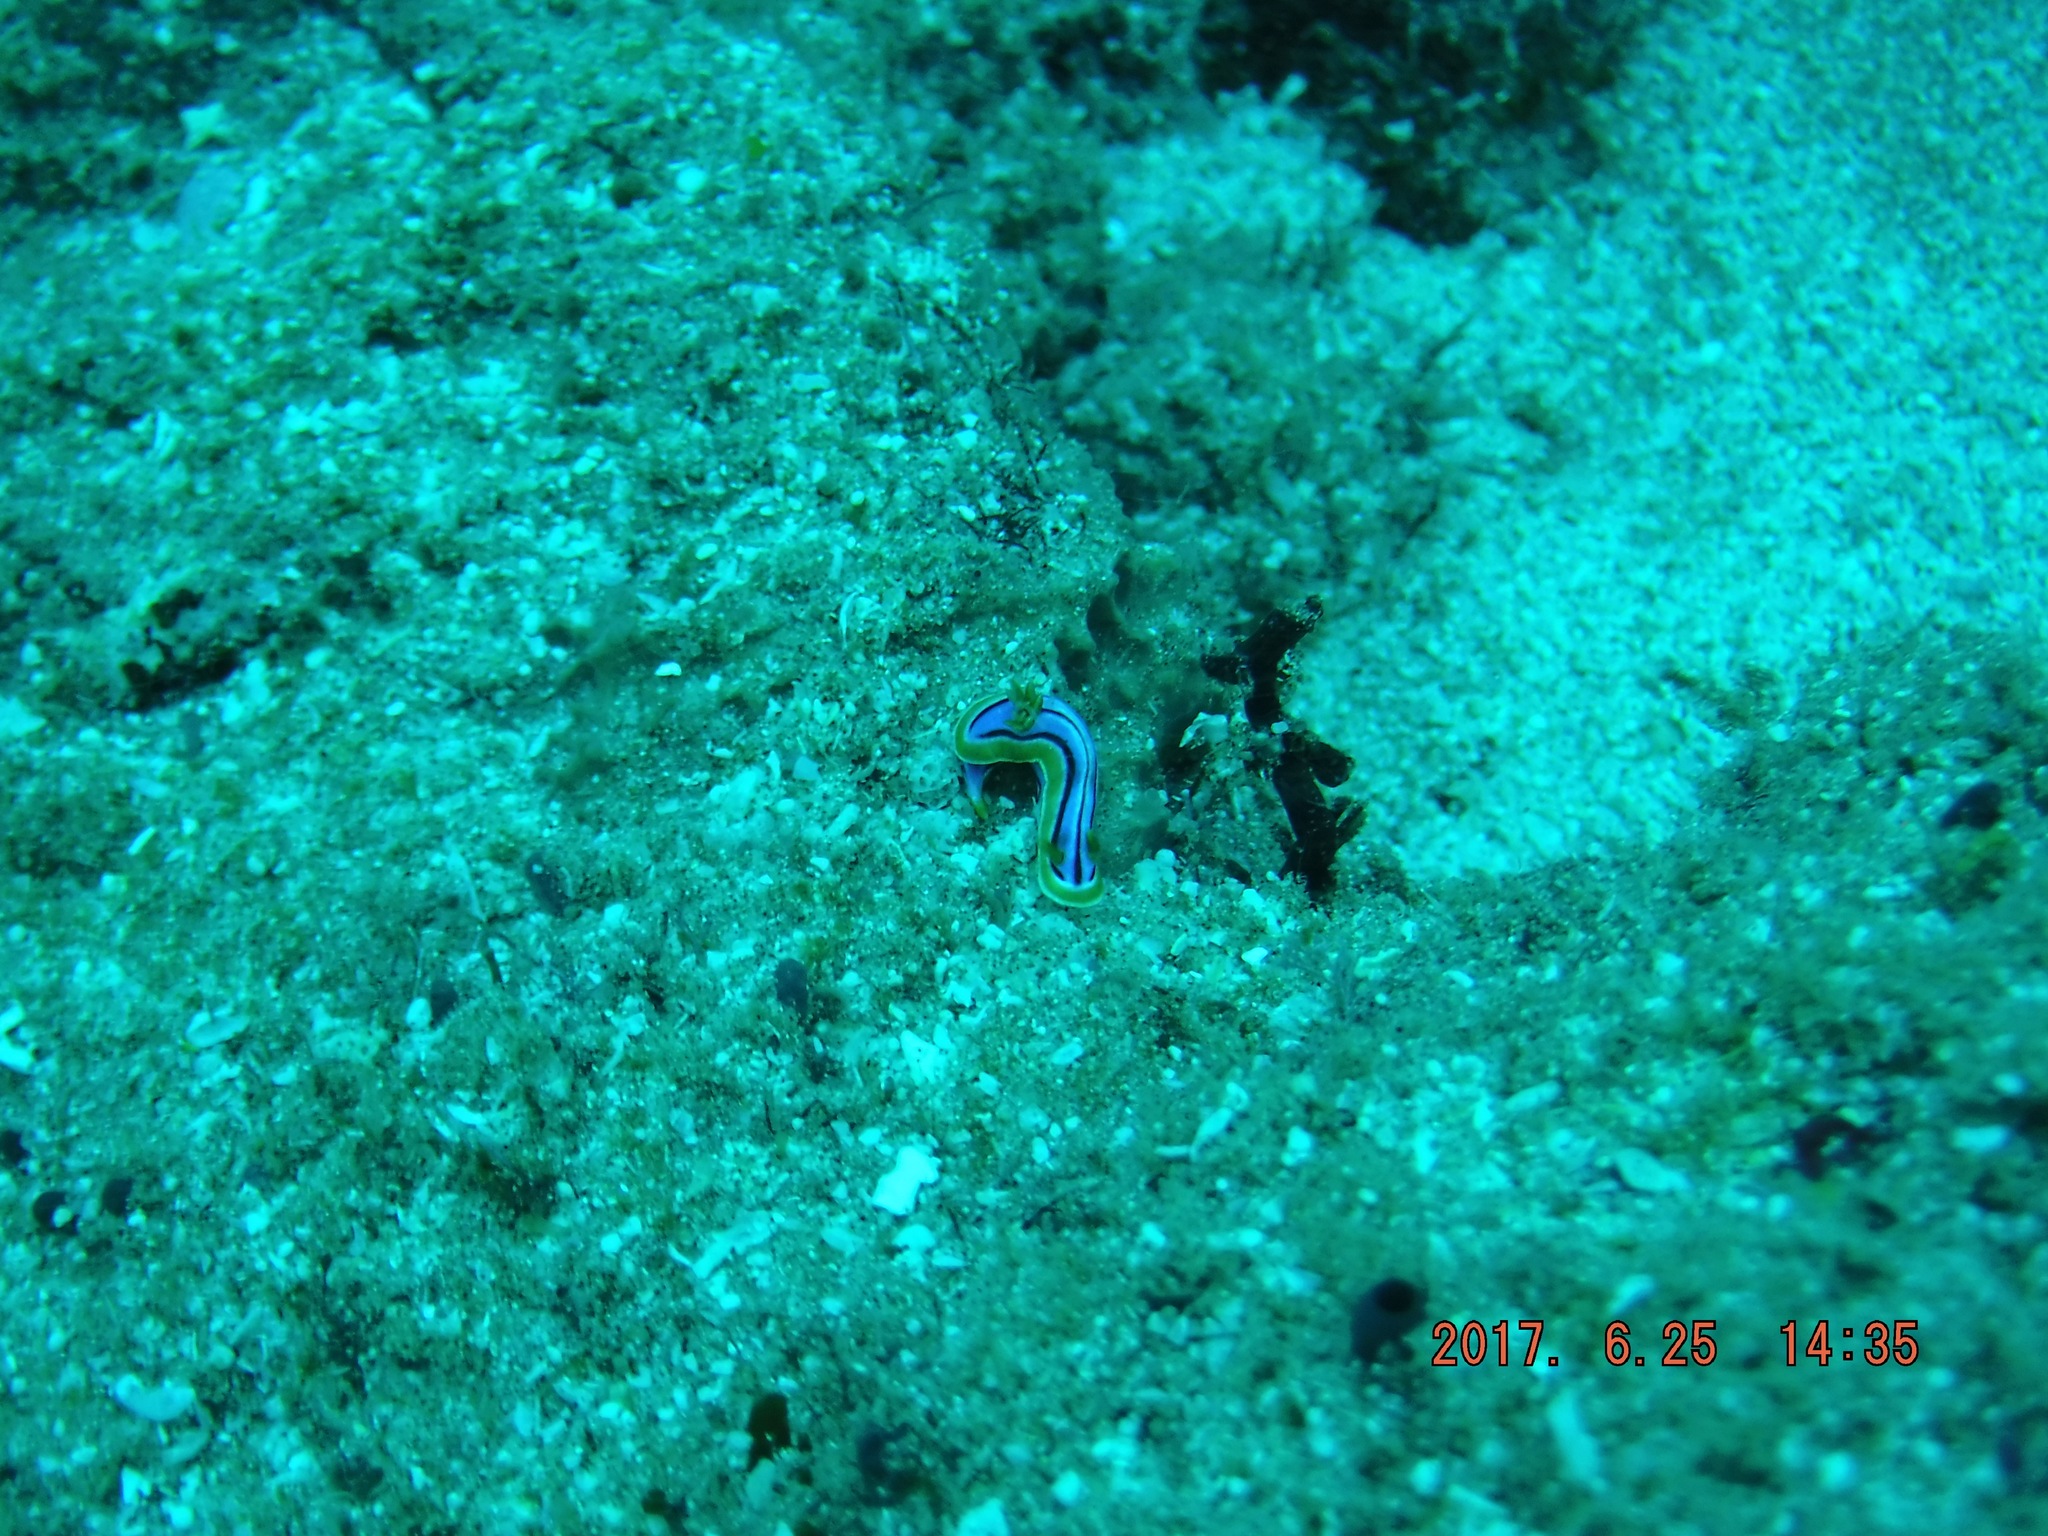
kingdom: Animalia
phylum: Mollusca
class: Gastropoda
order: Nudibranchia
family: Chromodorididae
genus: Chromodoris
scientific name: Chromodoris hamiltoni
